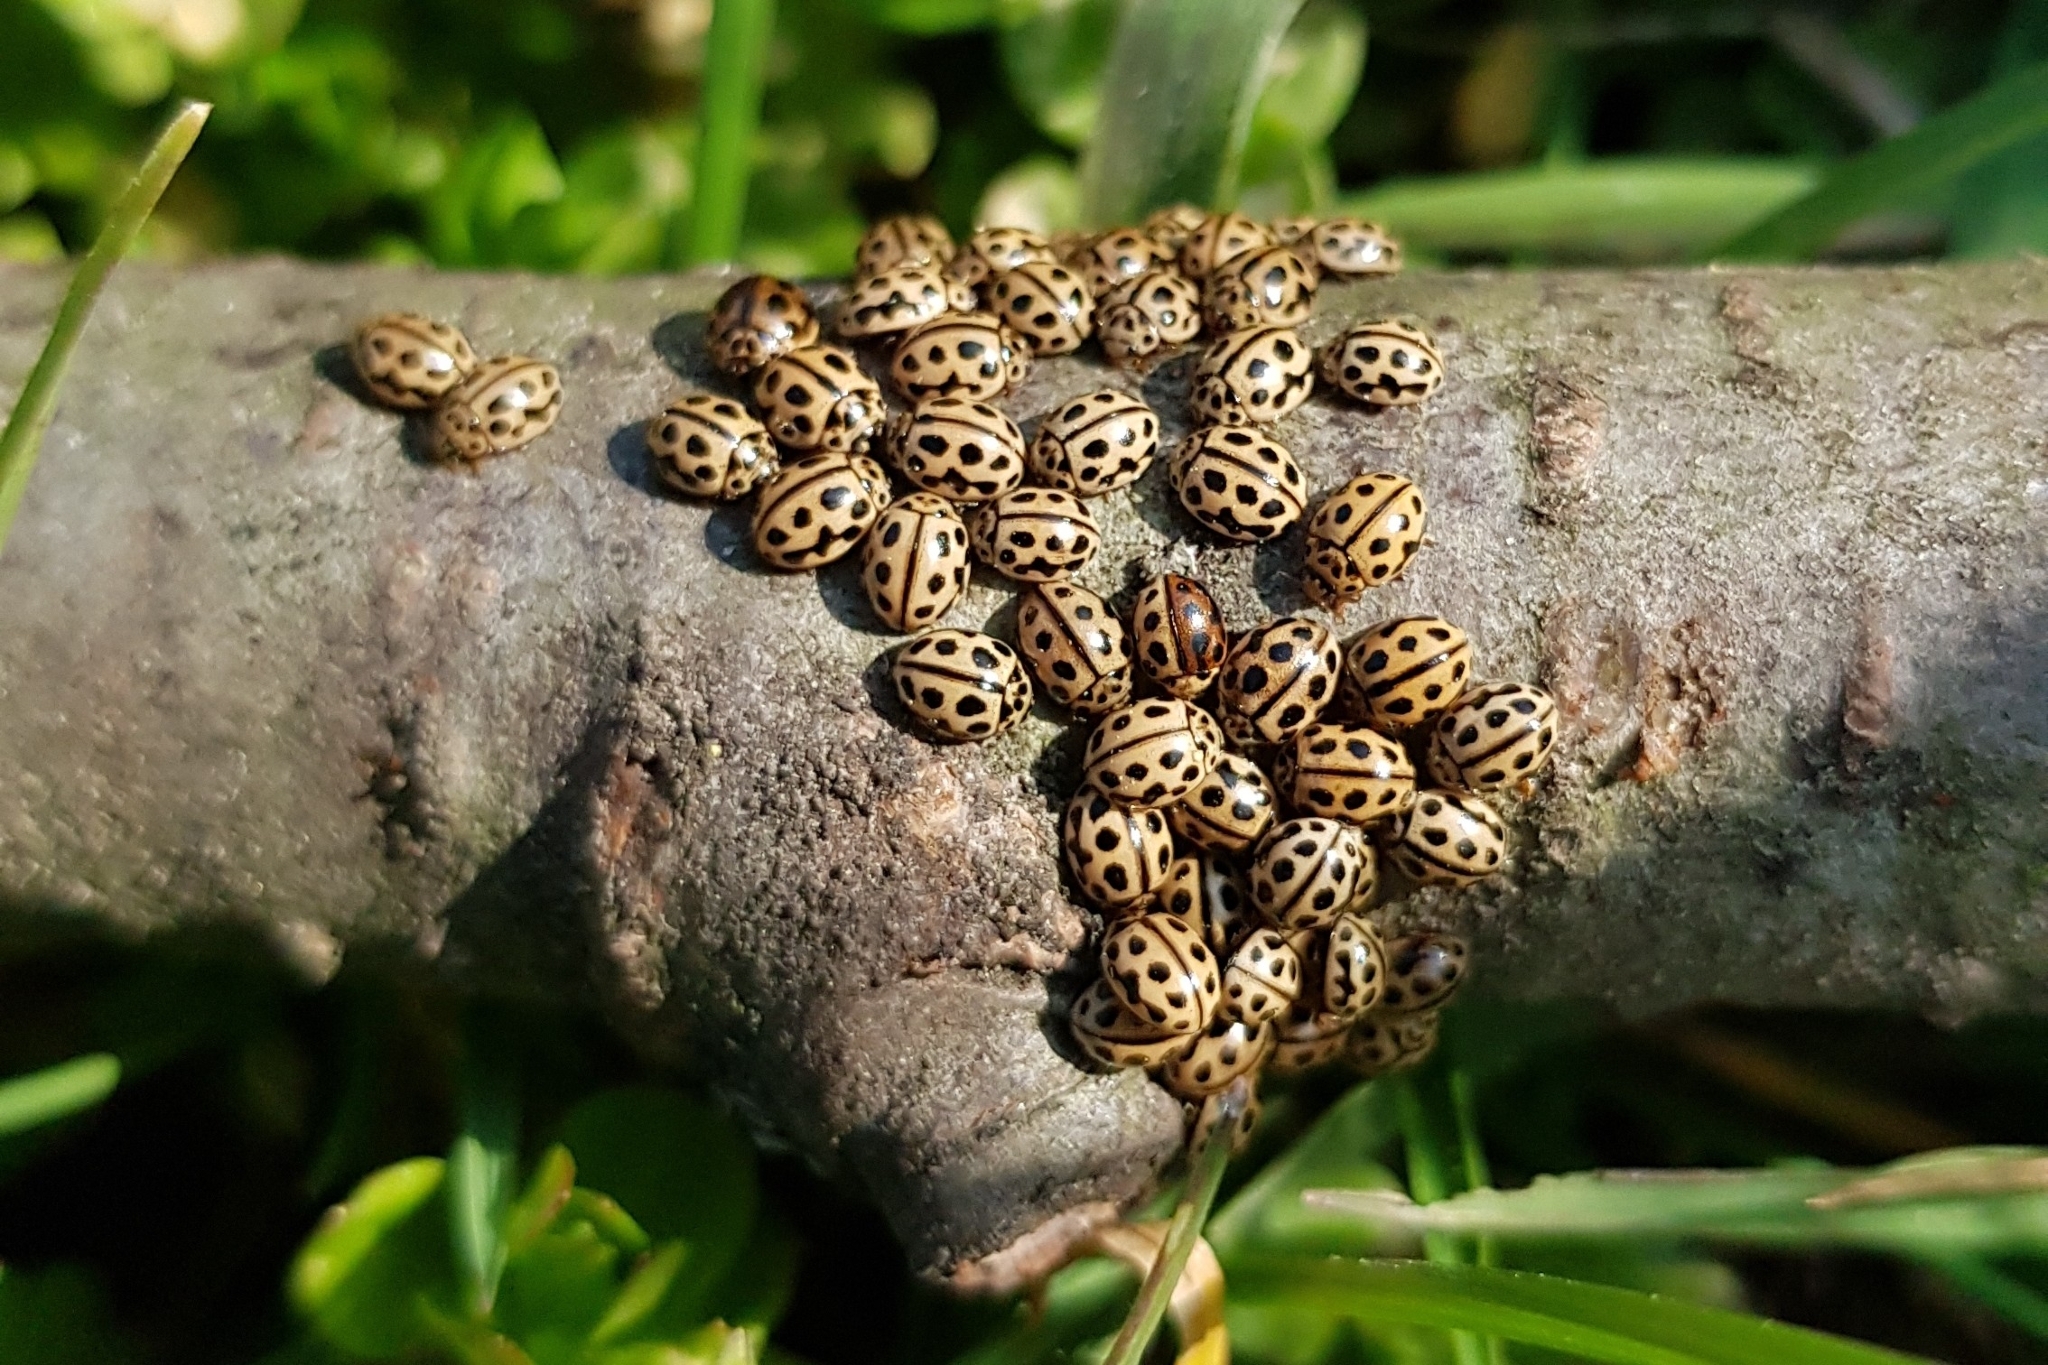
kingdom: Animalia
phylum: Arthropoda
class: Insecta
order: Coleoptera
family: Coccinellidae
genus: Tytthaspis
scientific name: Tytthaspis sedecimpunctata
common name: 16-spot ladybird
